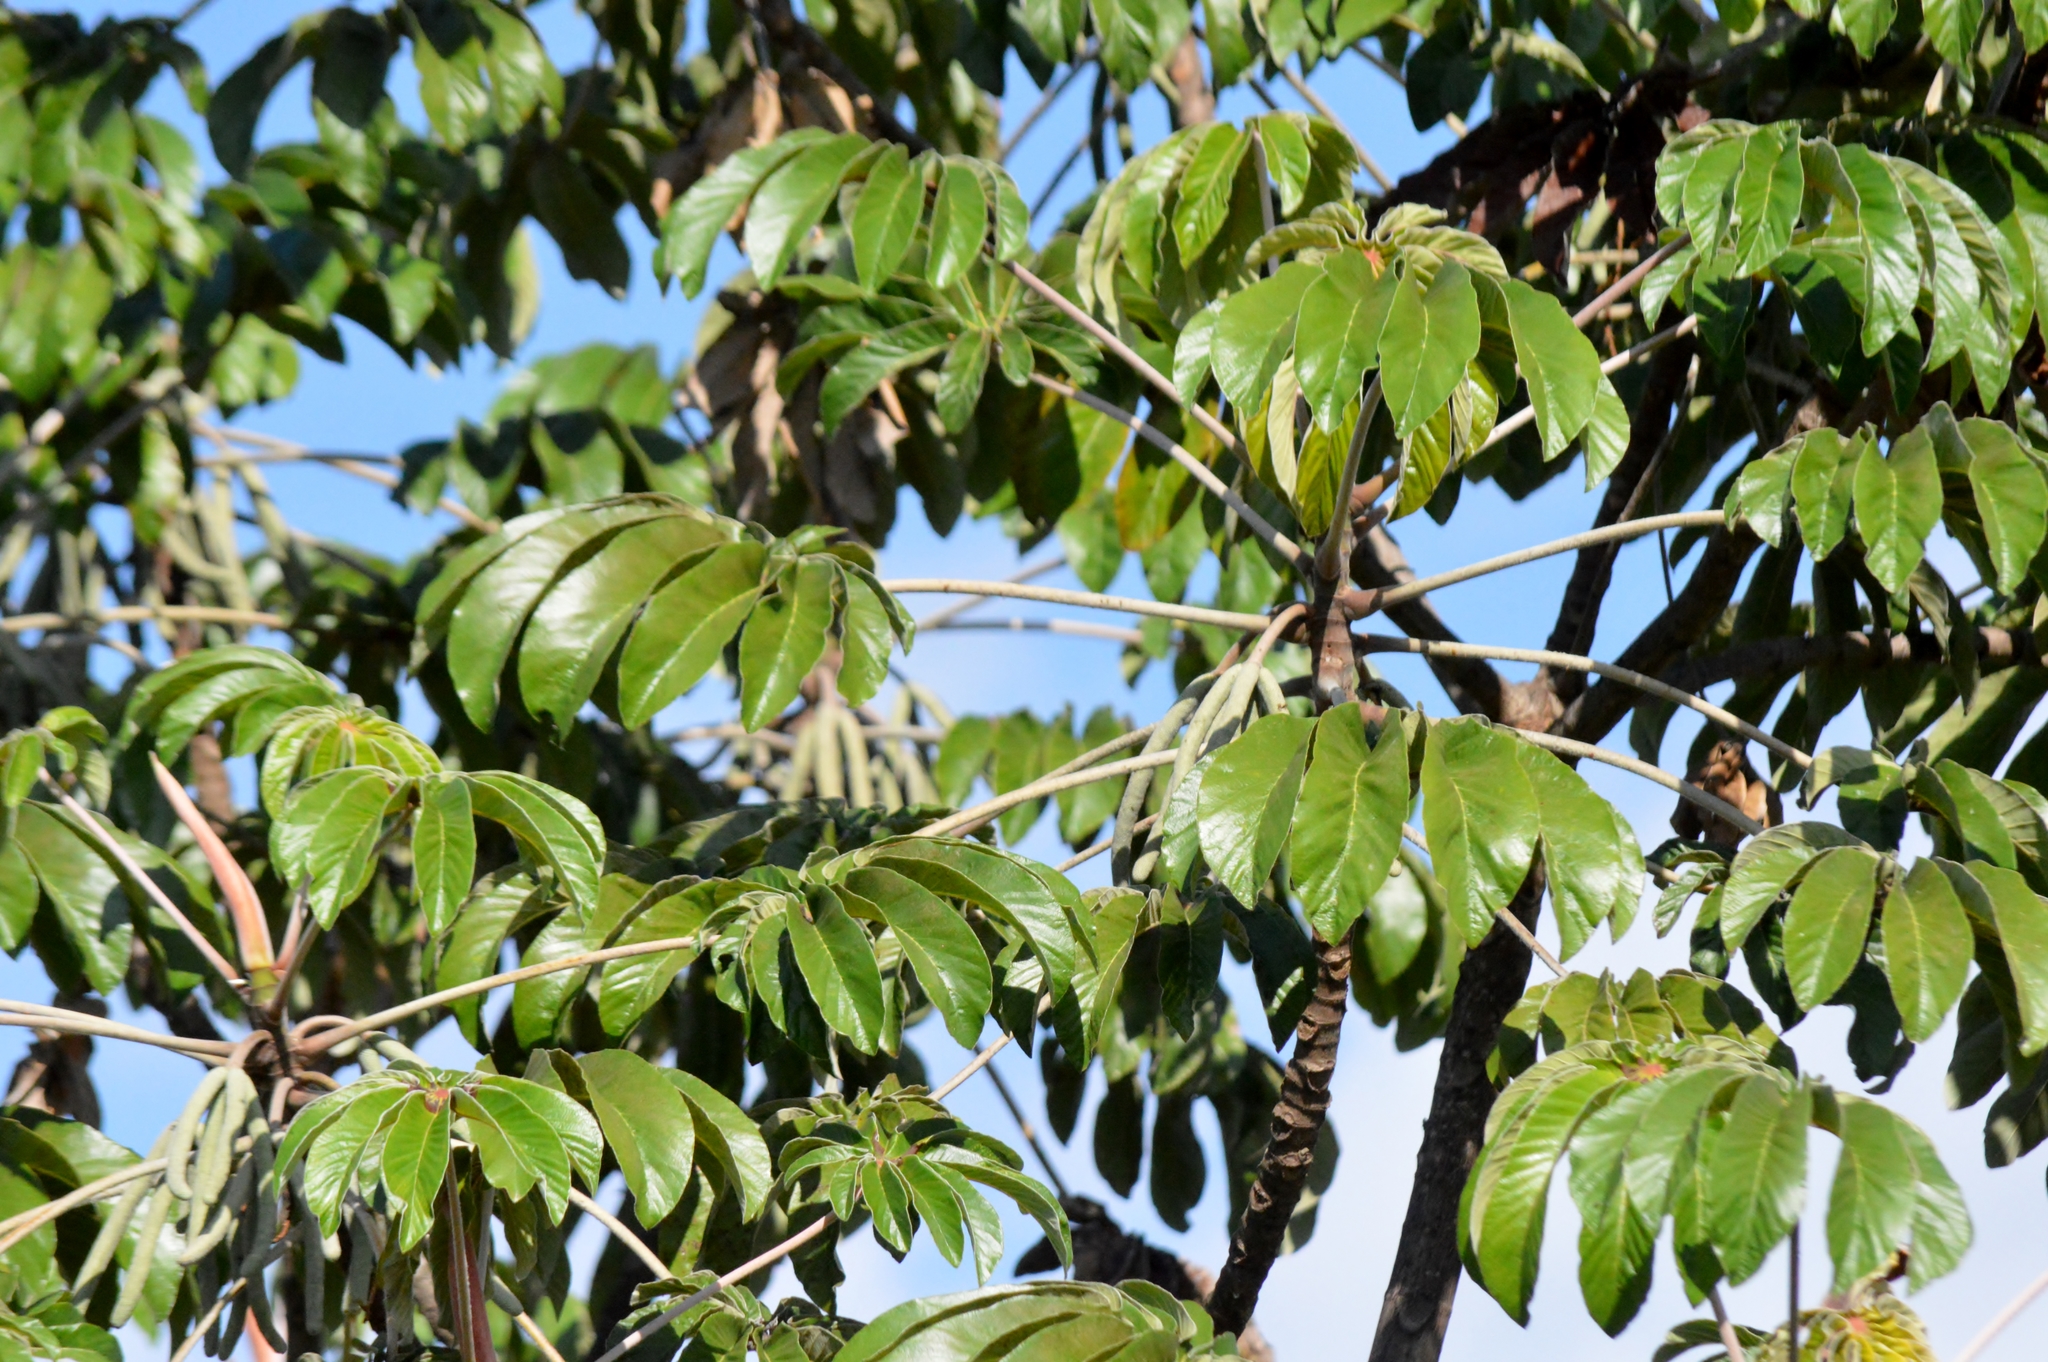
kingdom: Plantae
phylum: Tracheophyta
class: Magnoliopsida
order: Rosales
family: Urticaceae
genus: Cecropia
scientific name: Cecropia pachystachya
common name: Ambay pumpwood
